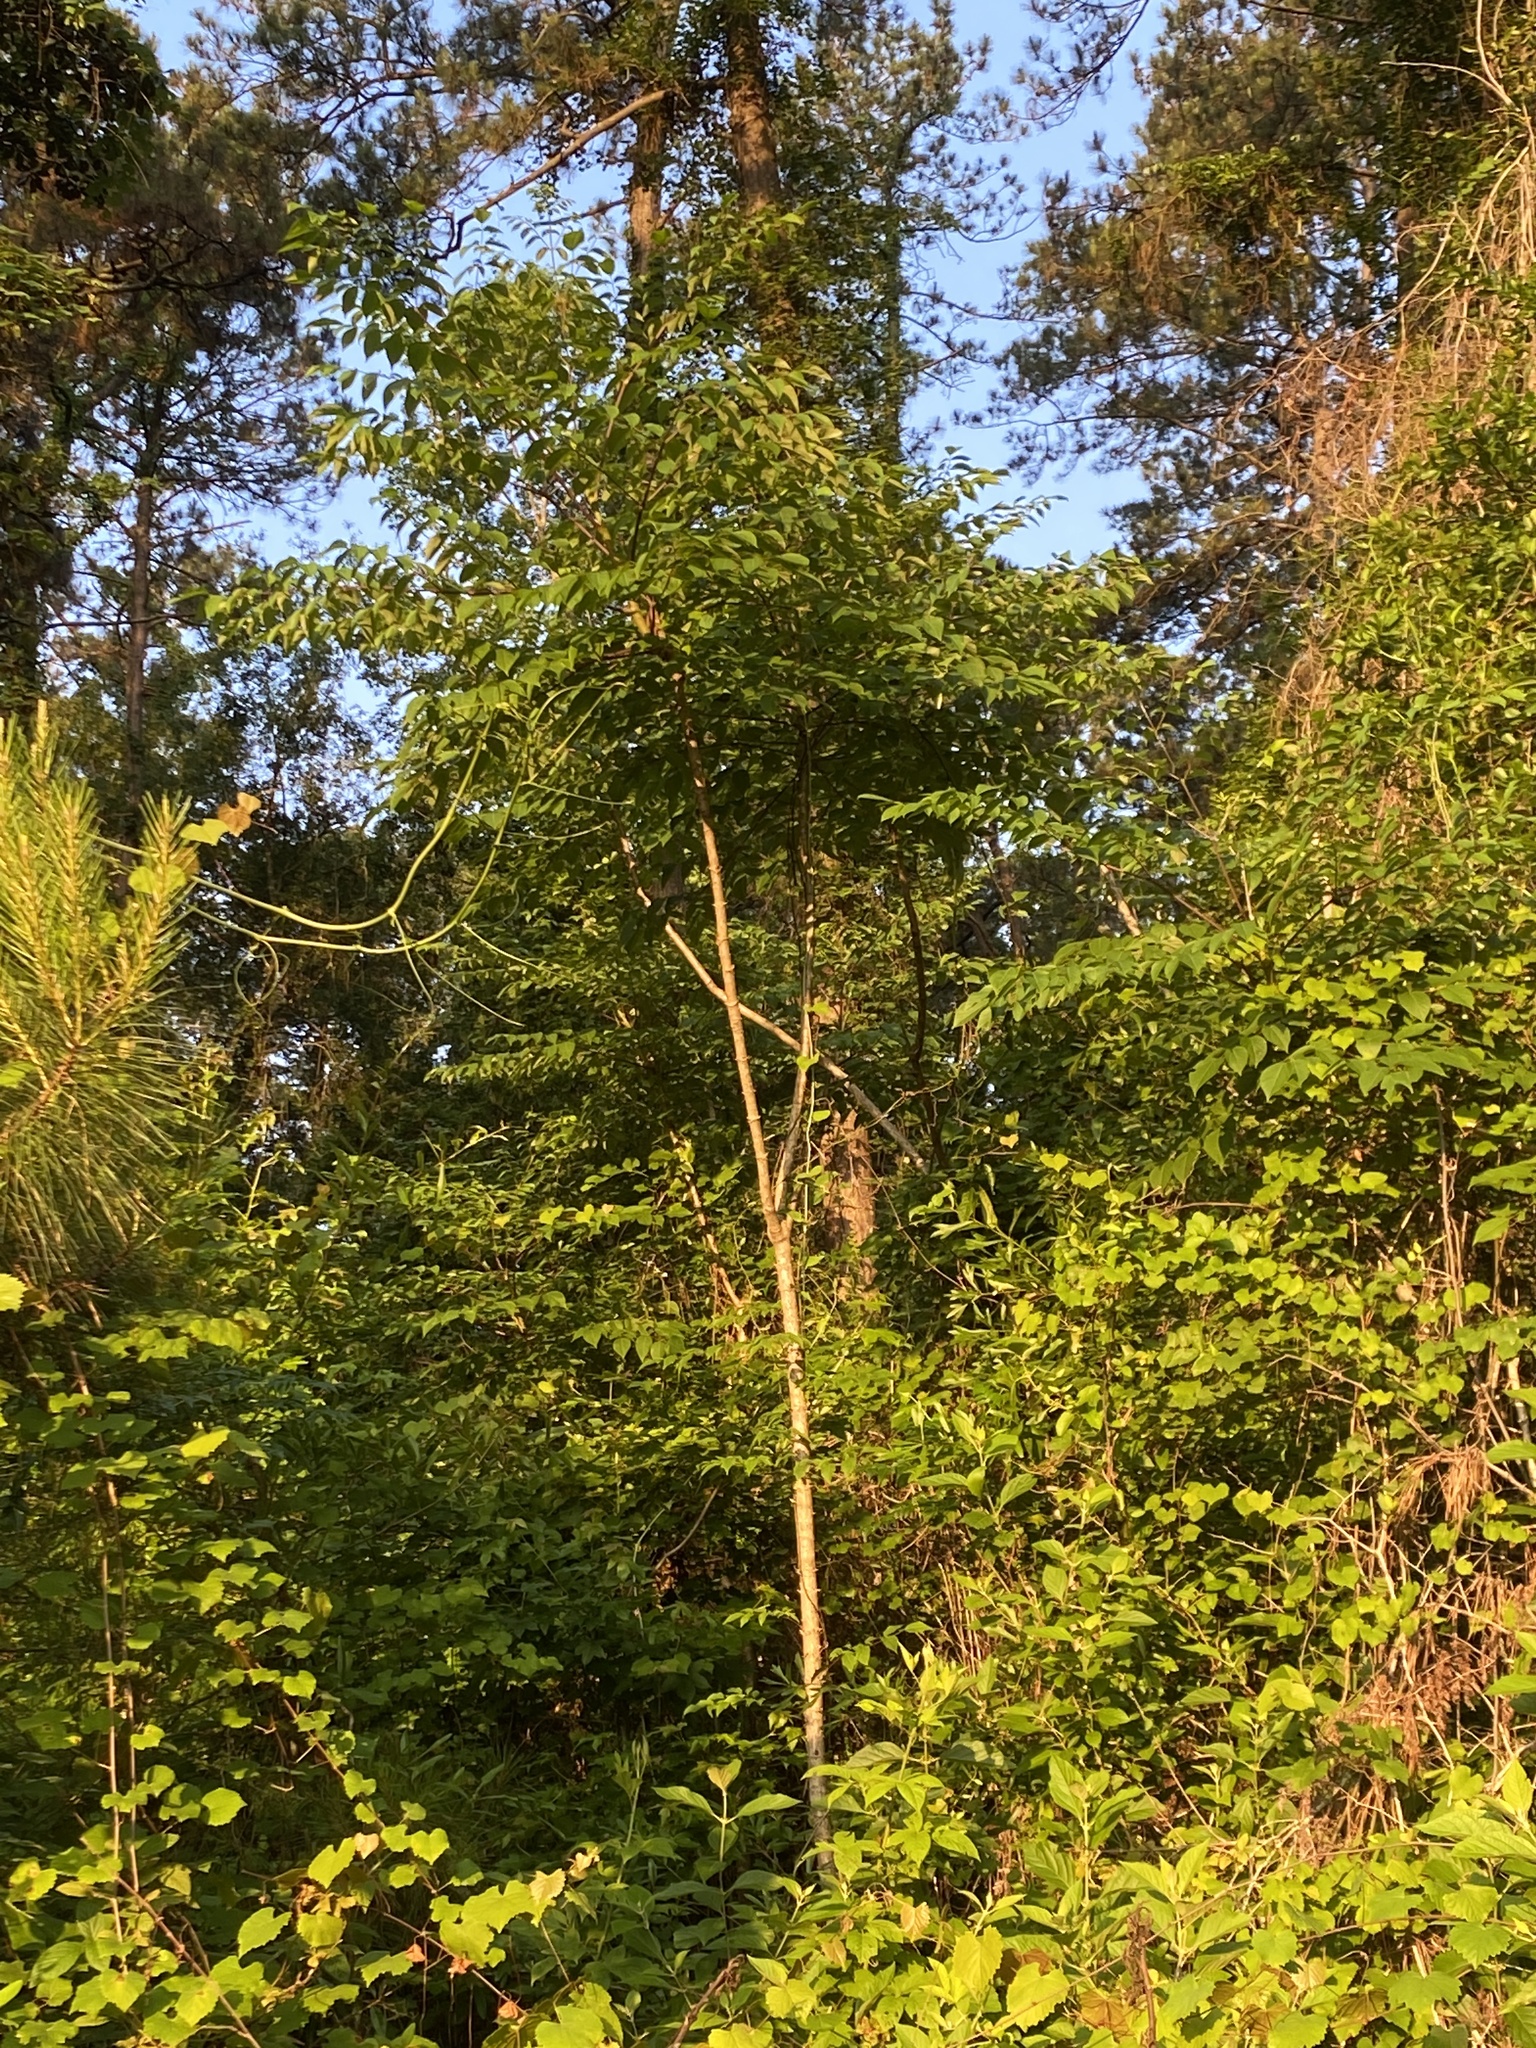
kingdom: Plantae
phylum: Tracheophyta
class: Magnoliopsida
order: Apiales
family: Araliaceae
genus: Aralia
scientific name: Aralia spinosa
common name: Hercules'-club
